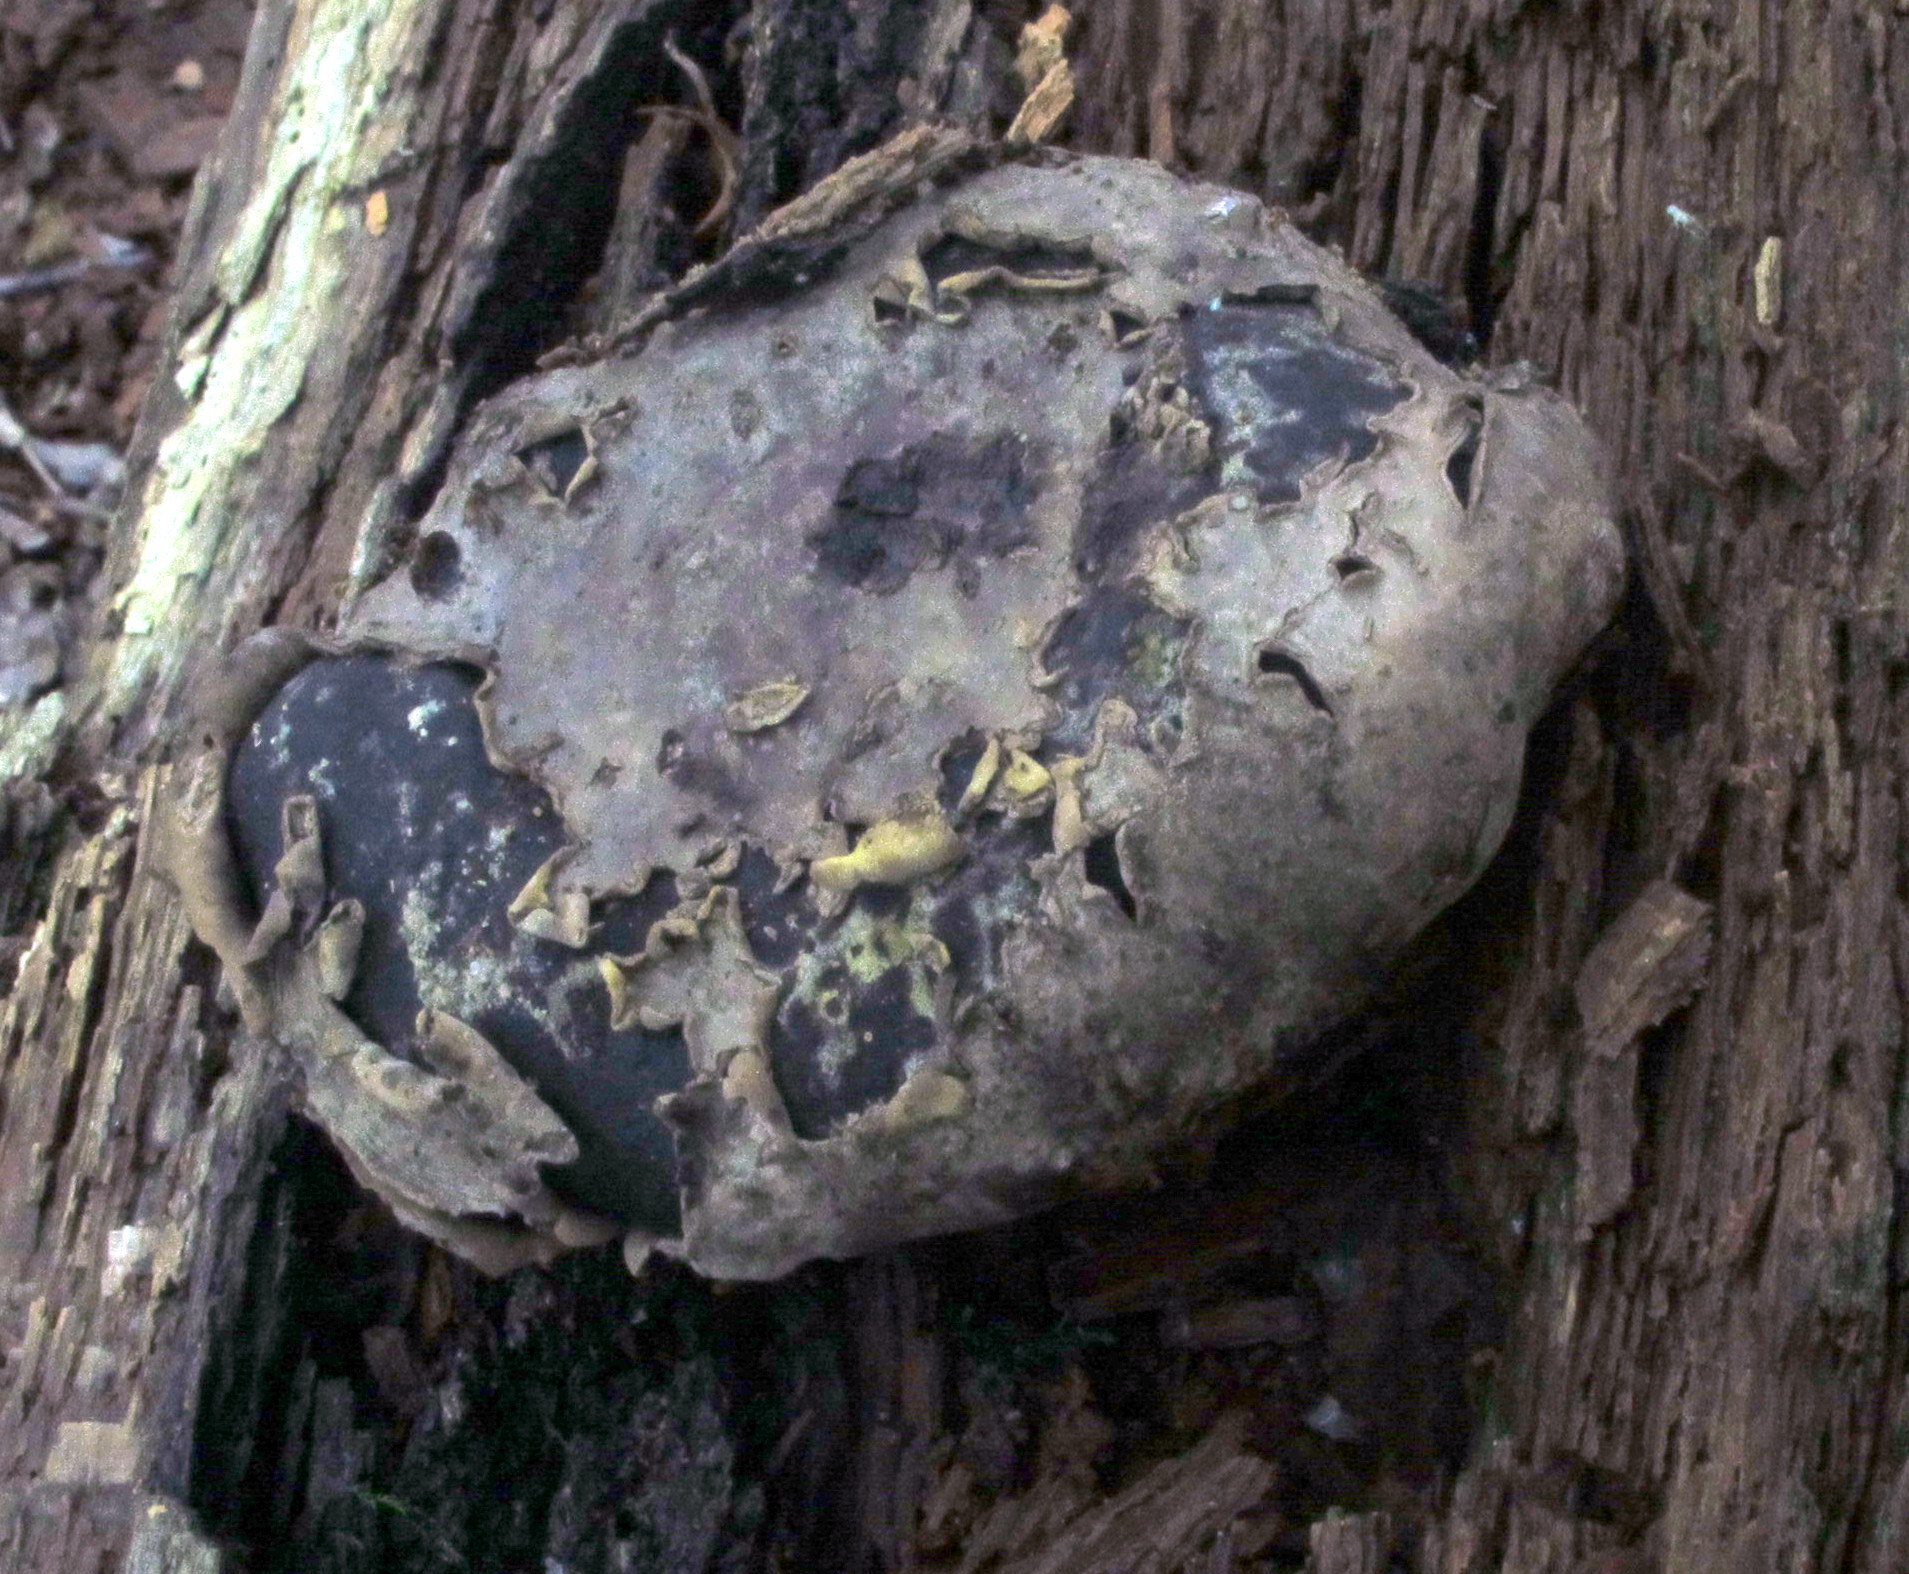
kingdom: Fungi
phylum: Ascomycota
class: Sordariomycetes
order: Boliniales
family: Boliniaceae
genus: Camarops
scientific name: Camarops petersii
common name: Dog's nose fungus
